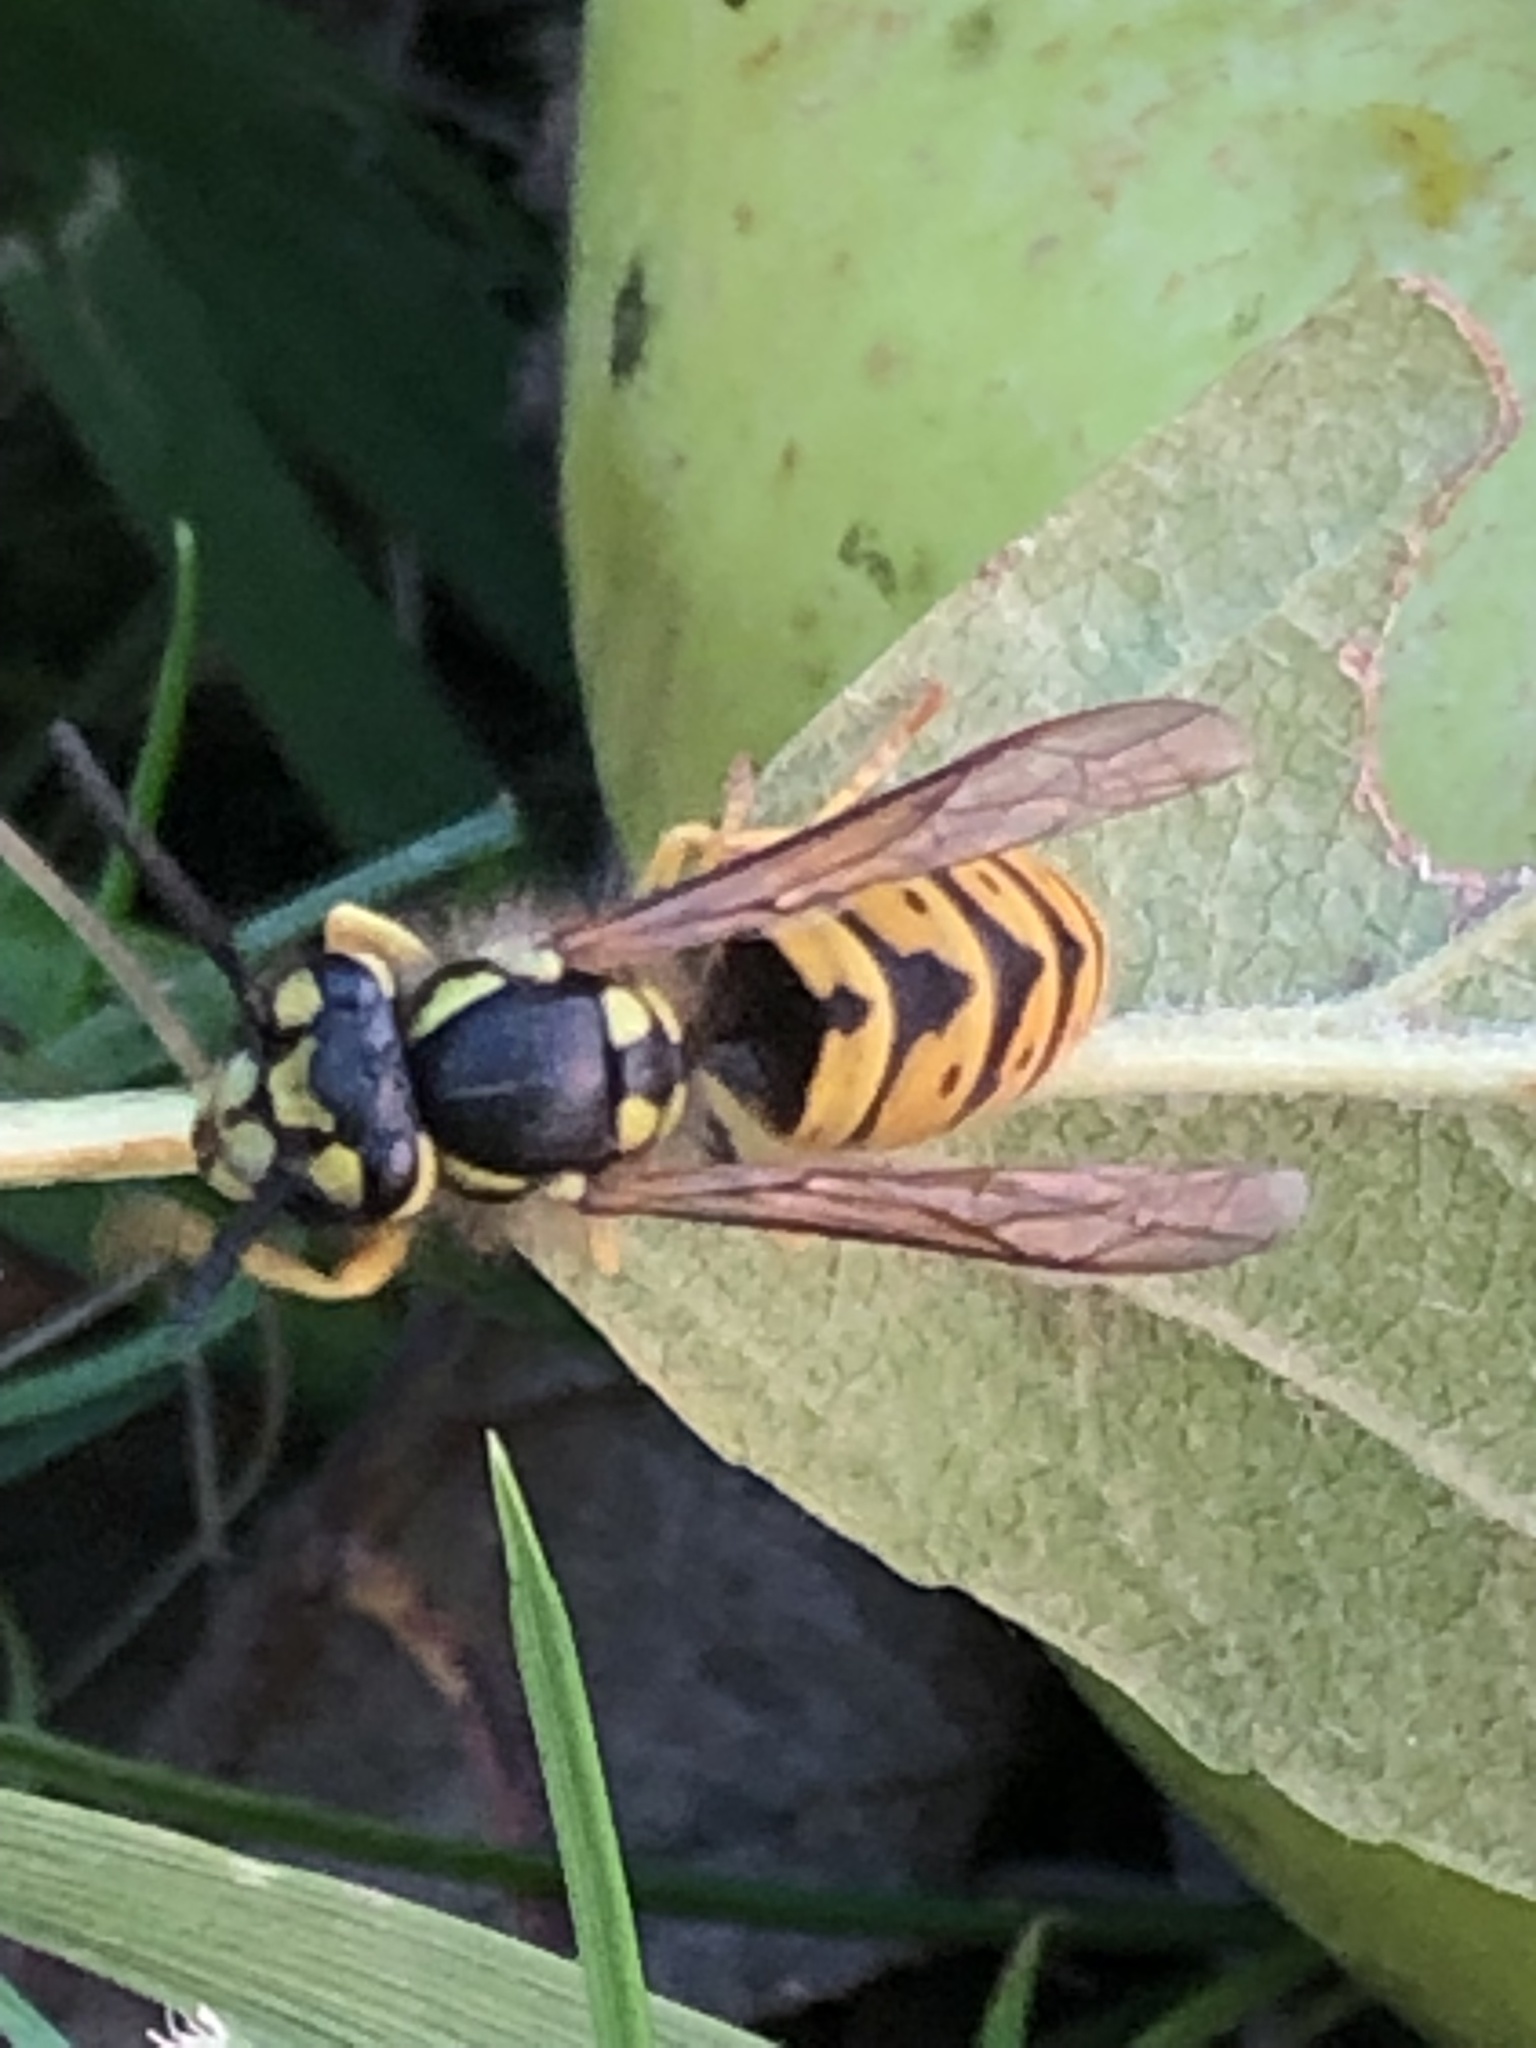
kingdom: Animalia
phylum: Arthropoda
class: Insecta
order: Hymenoptera
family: Vespidae
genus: Vespula
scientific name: Vespula germanica
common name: German wasp
